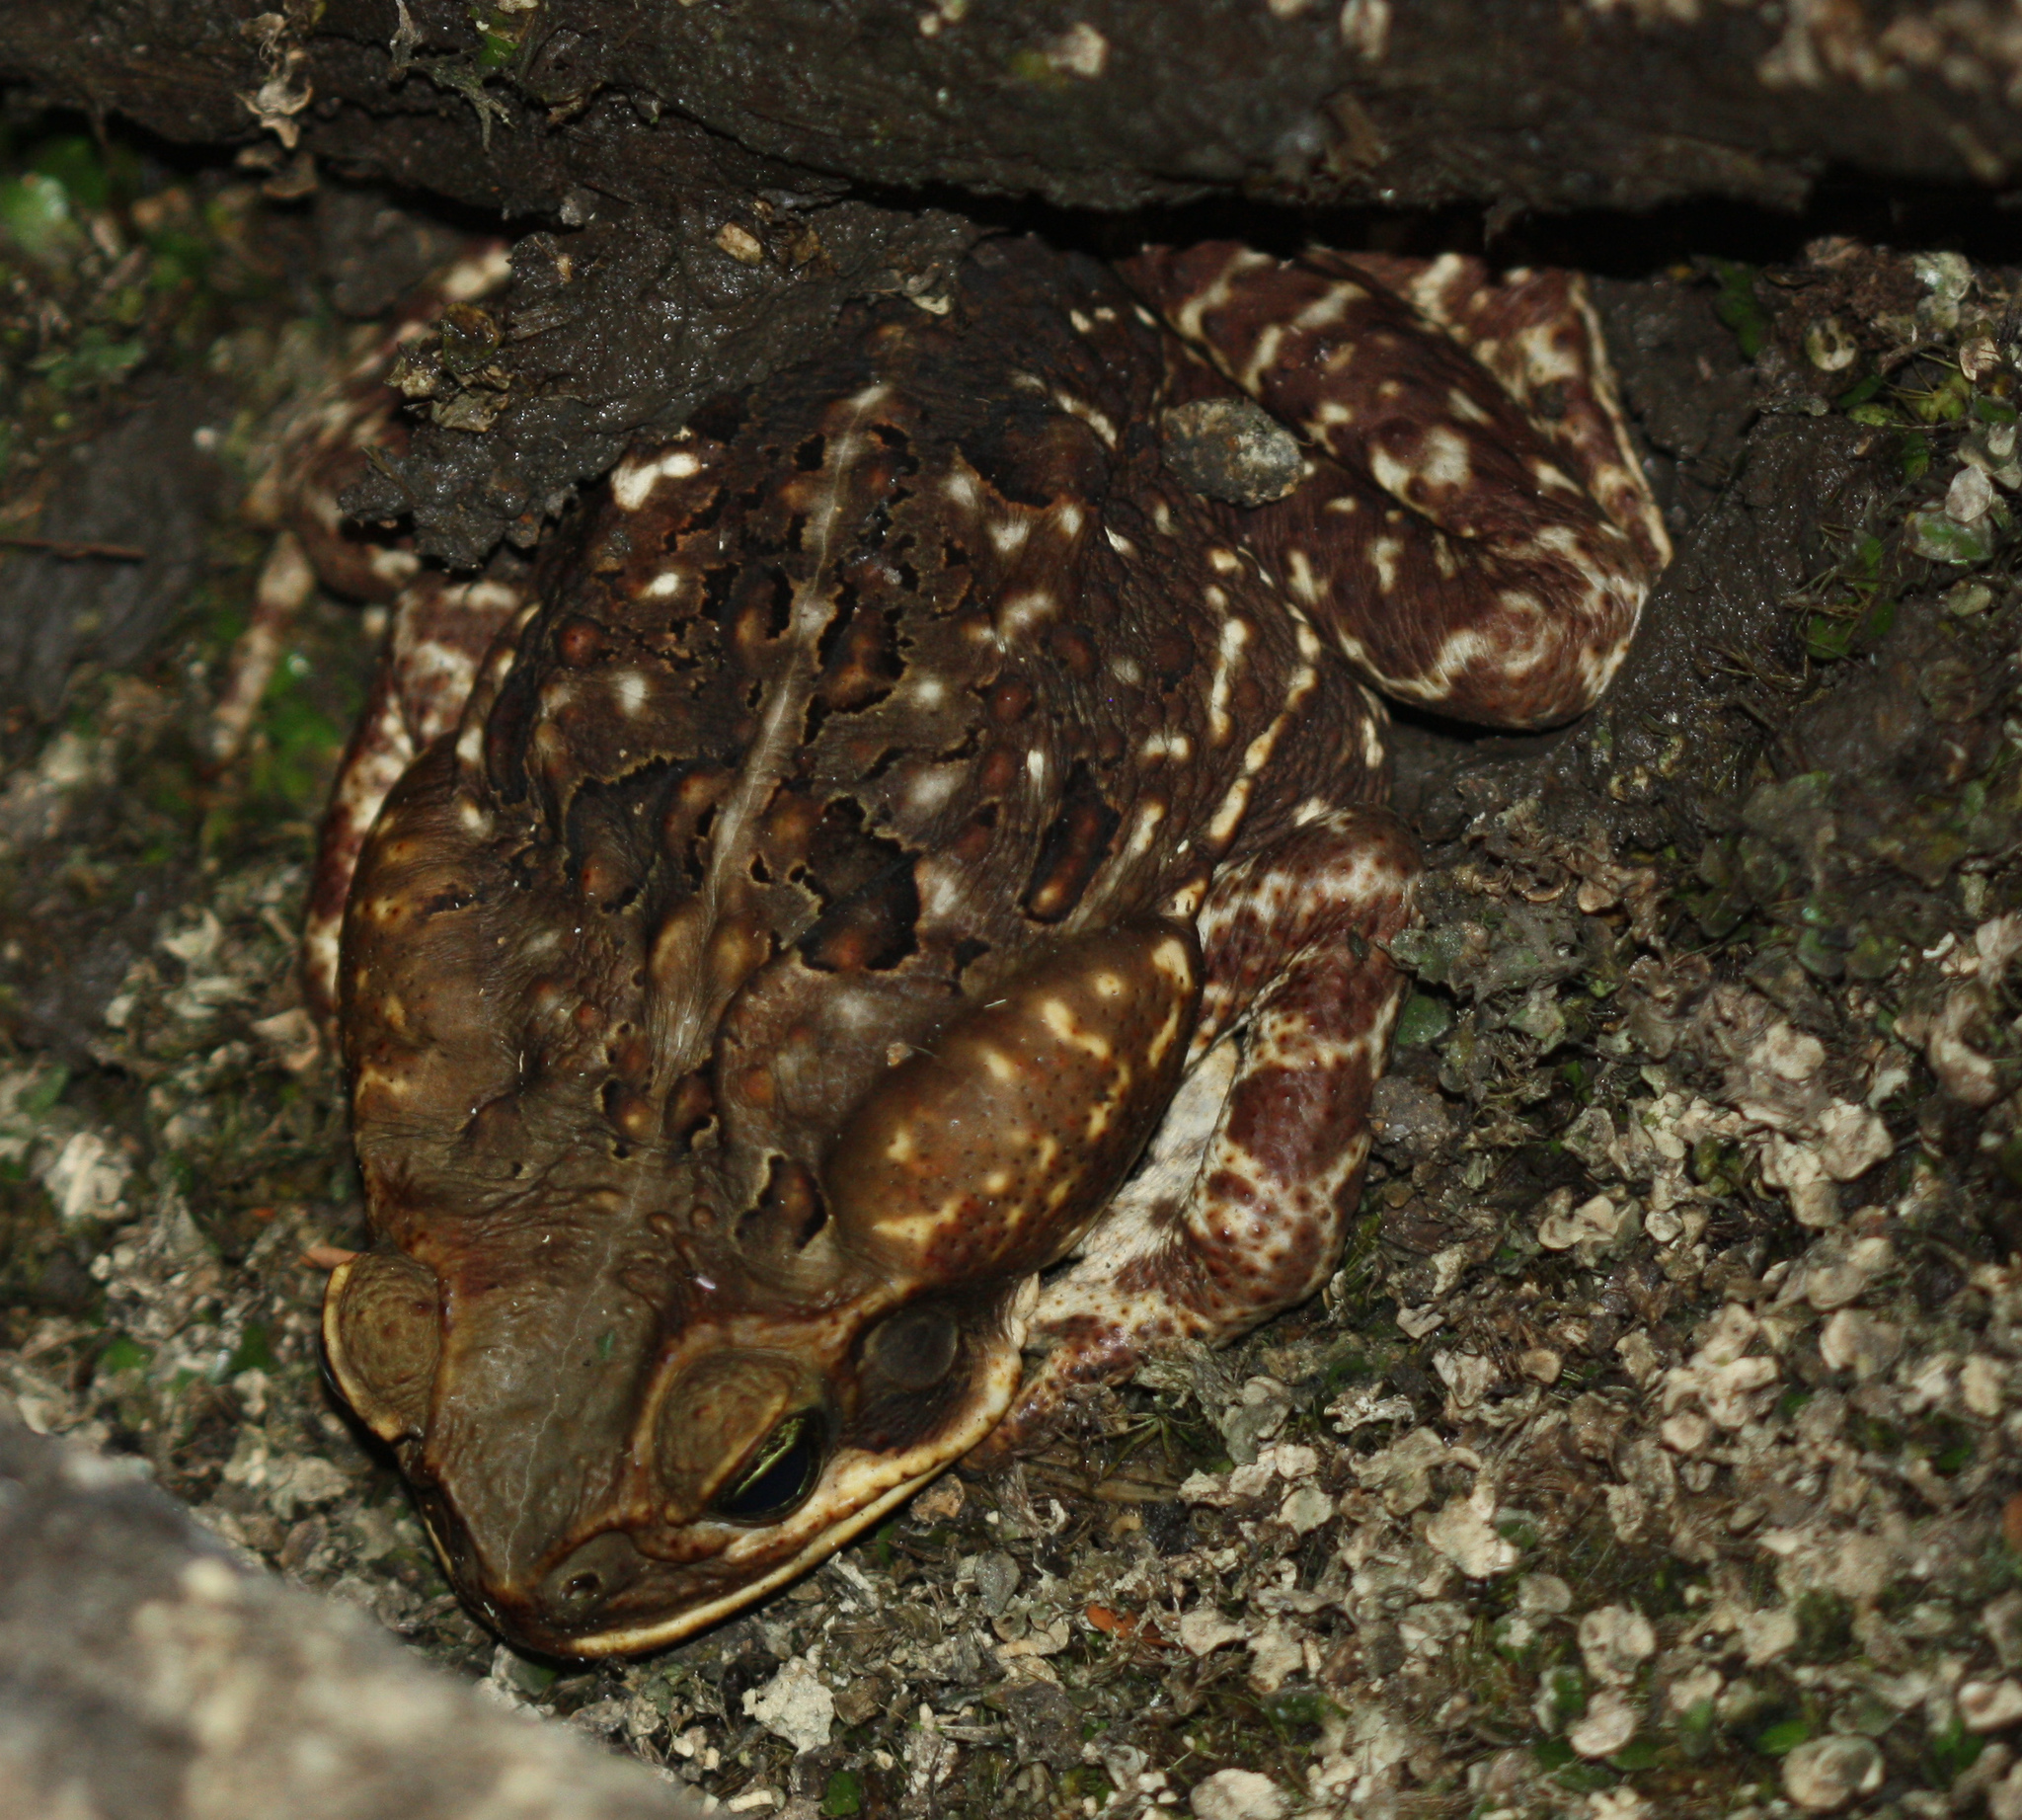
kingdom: Animalia
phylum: Chordata
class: Amphibia
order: Anura
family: Bufonidae
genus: Rhinella
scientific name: Rhinella horribilis
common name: Mesoamerican cane toad
